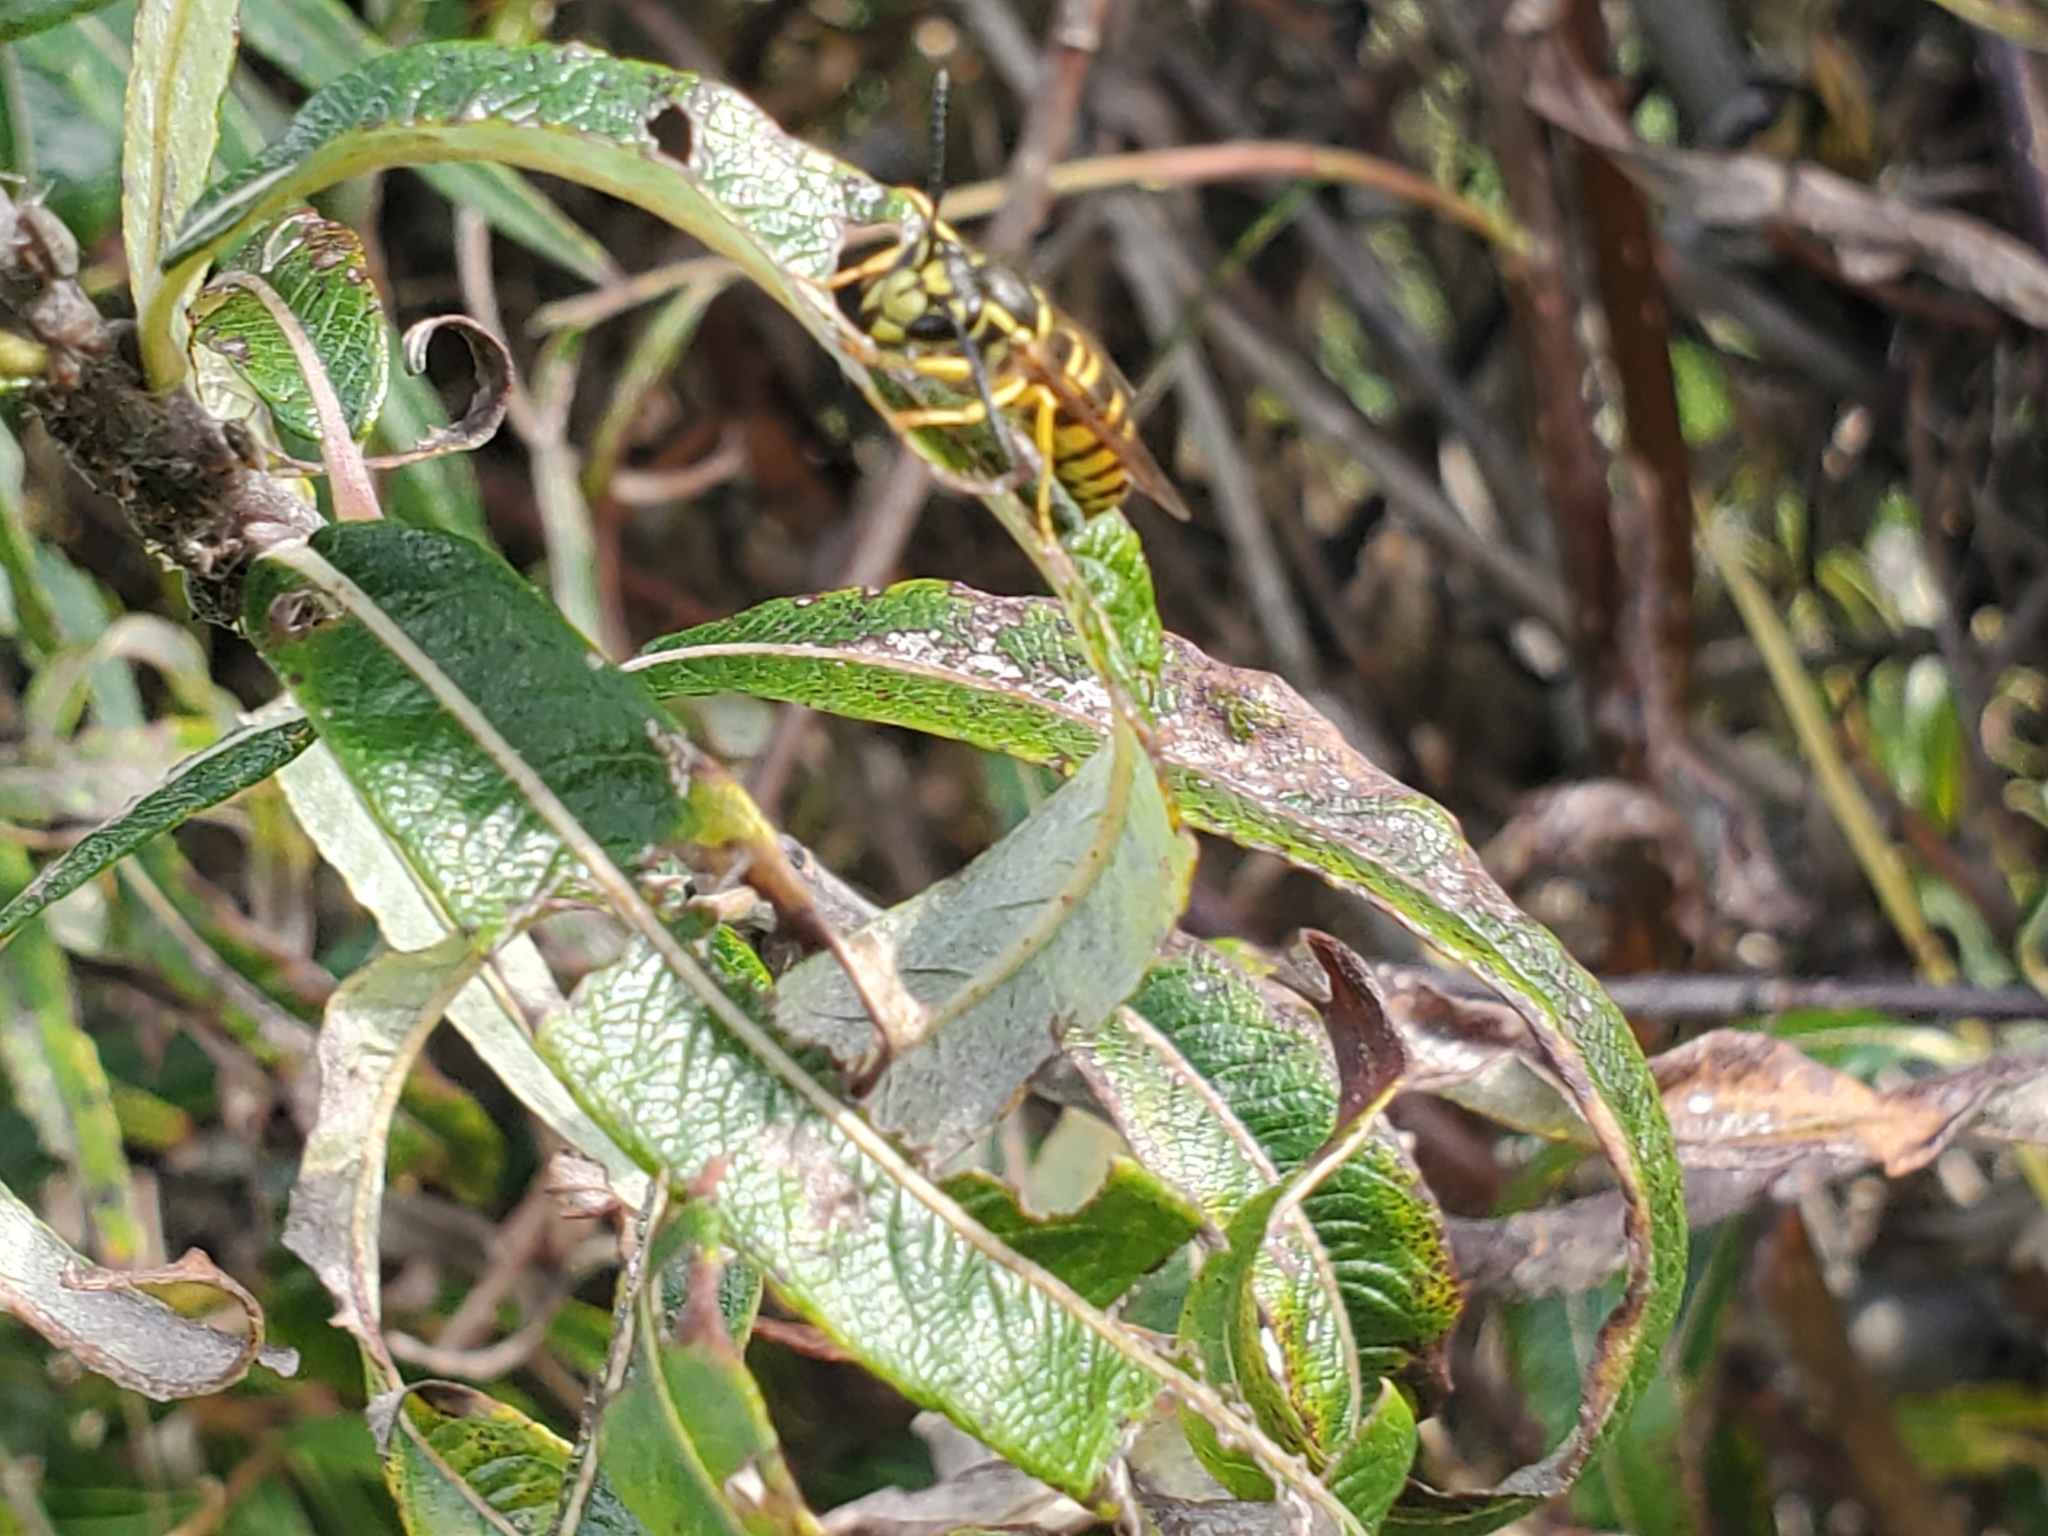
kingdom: Animalia
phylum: Arthropoda
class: Insecta
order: Hymenoptera
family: Vespidae
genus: Vespula
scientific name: Vespula maculifrons
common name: Eastern yellowjacket
